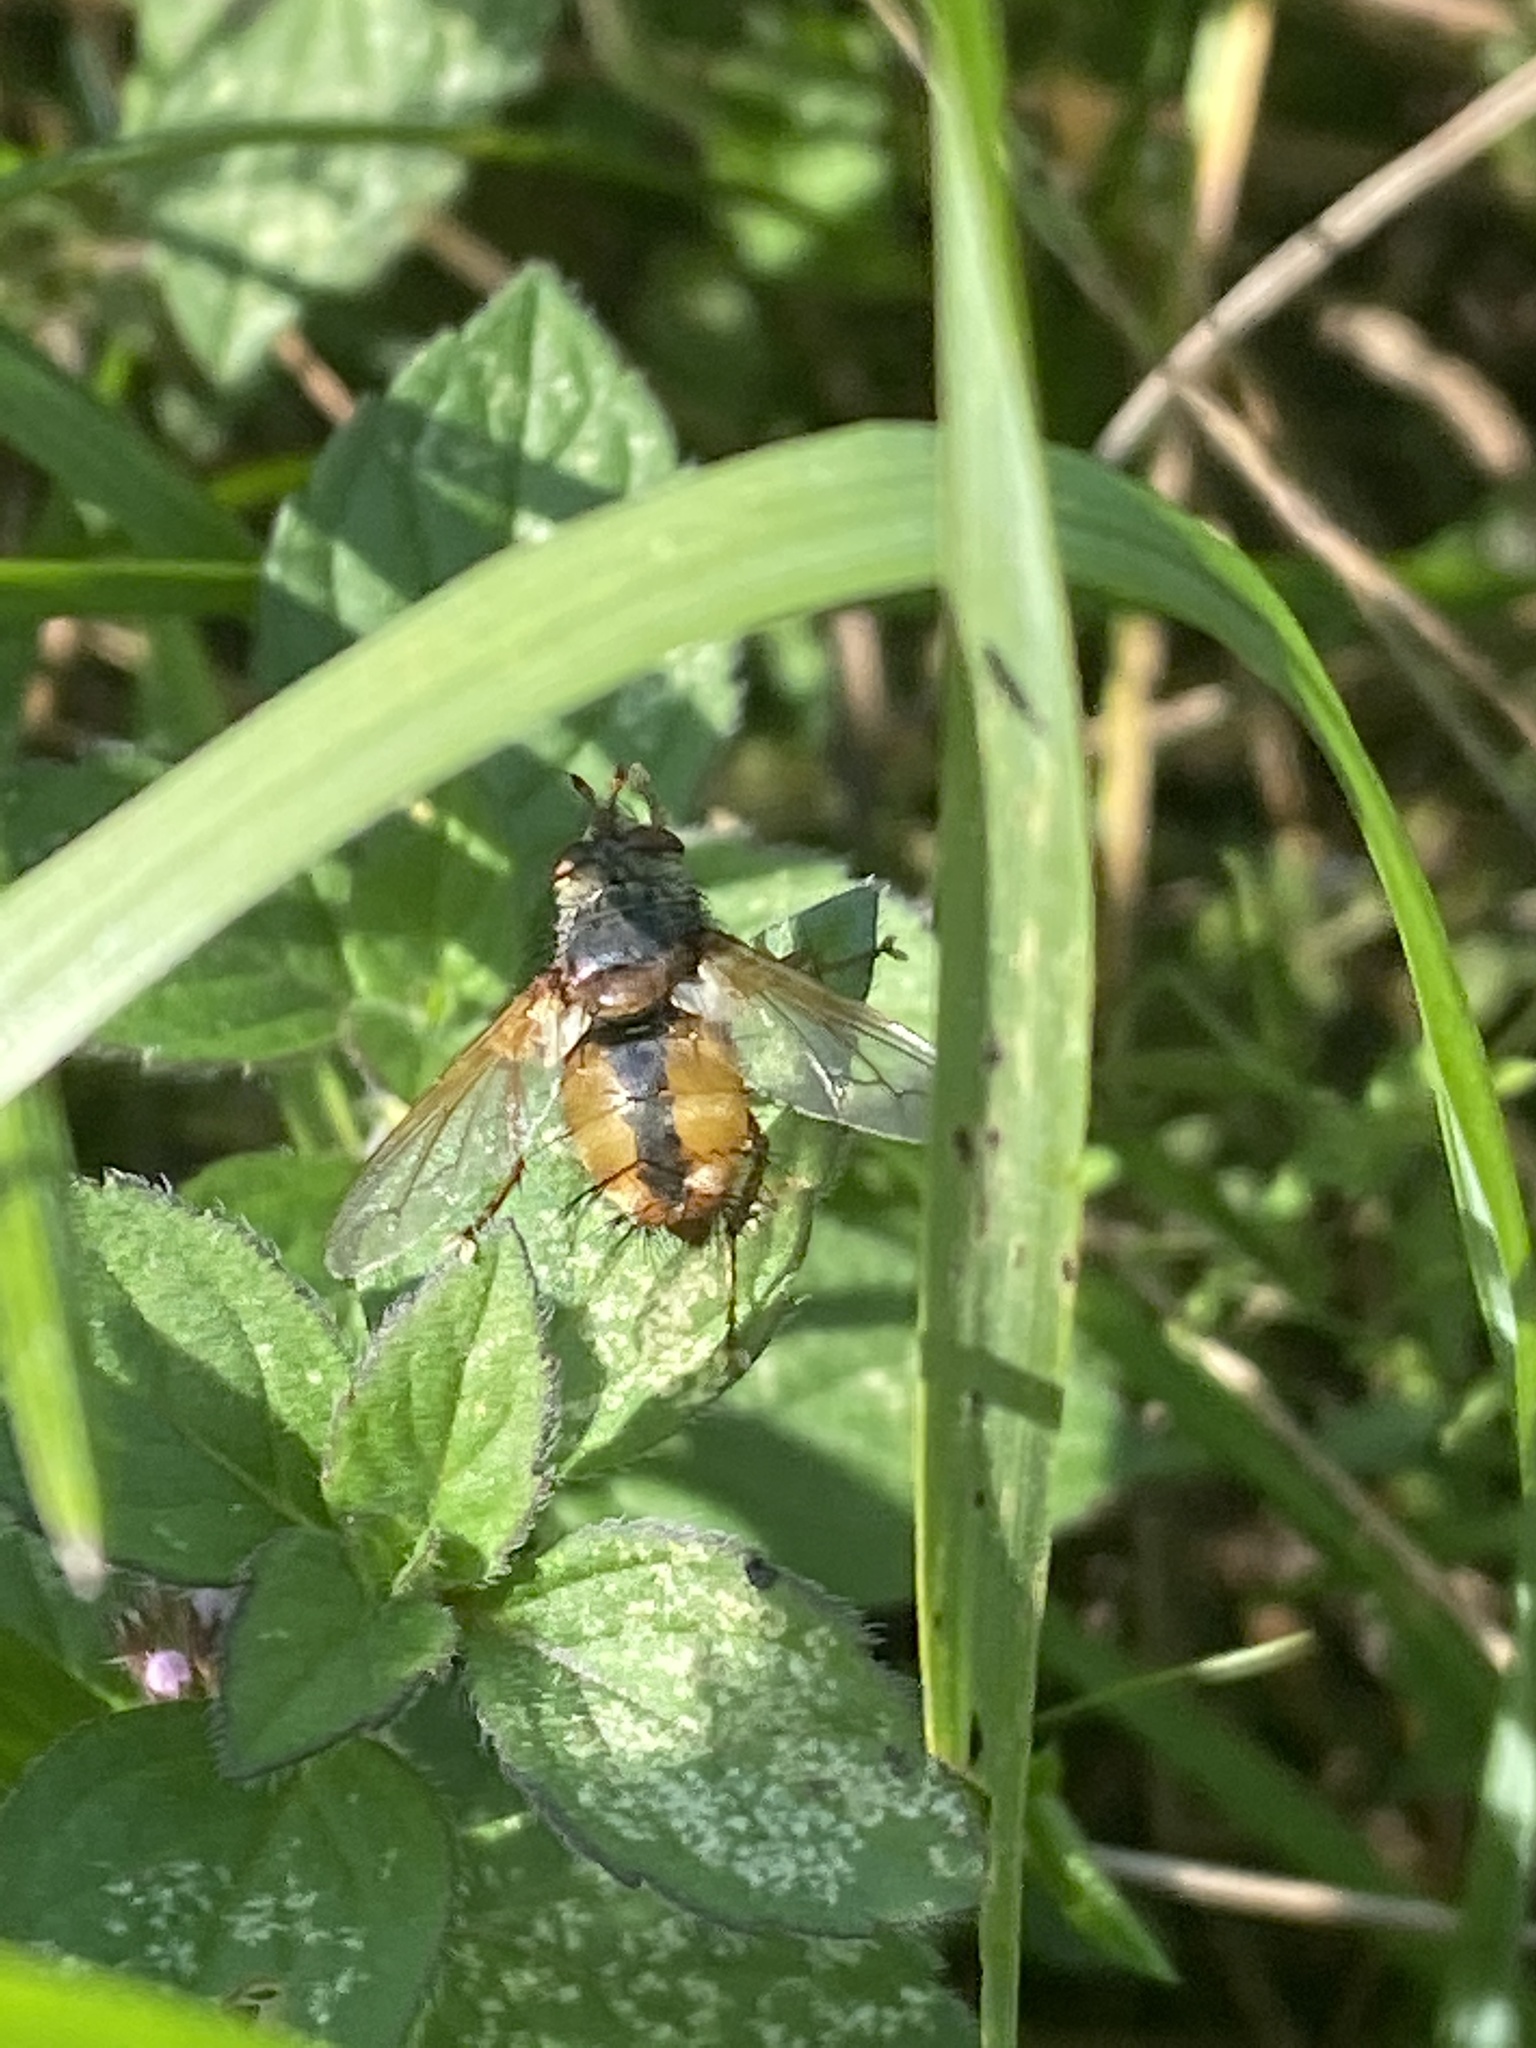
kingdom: Animalia
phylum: Arthropoda
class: Insecta
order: Diptera
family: Tachinidae
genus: Tachina
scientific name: Tachina fera
